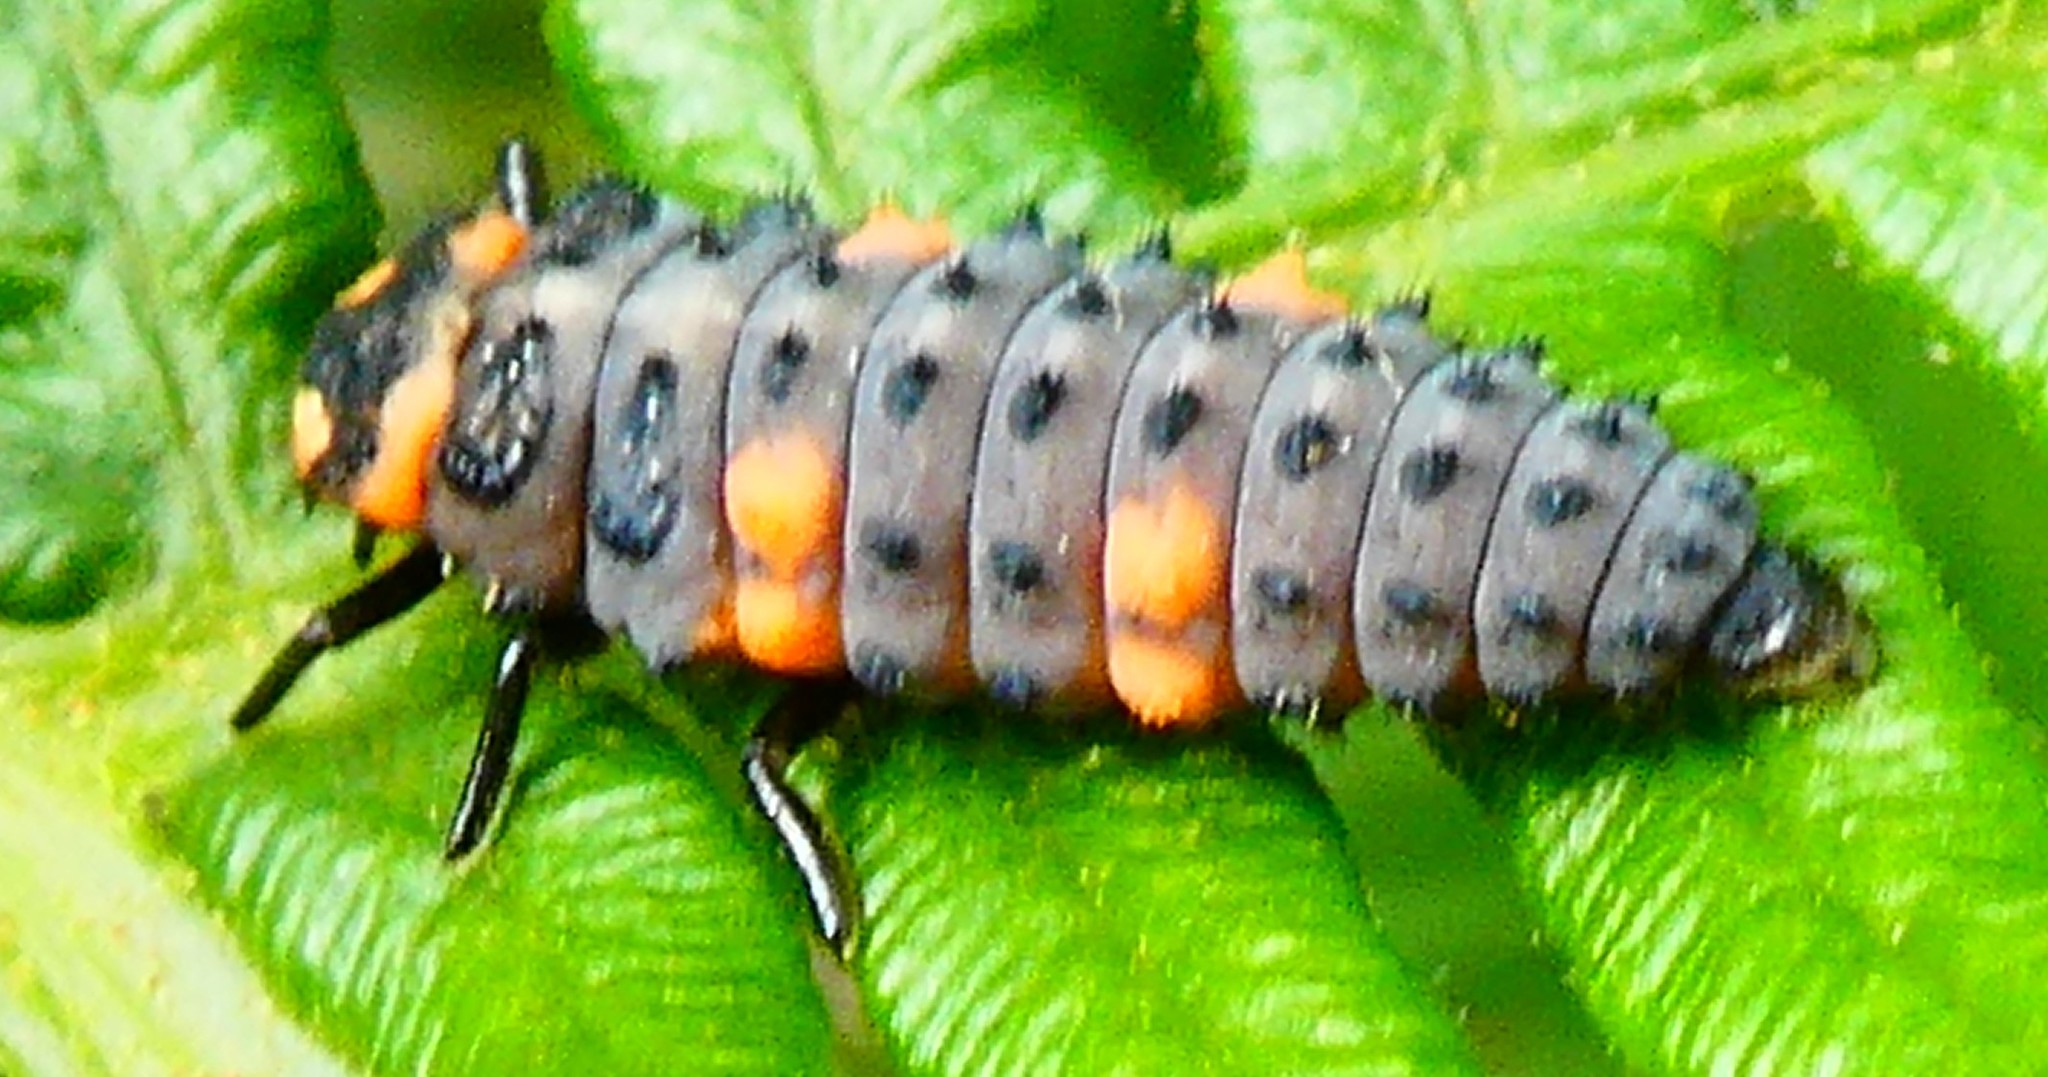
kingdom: Animalia
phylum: Arthropoda
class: Insecta
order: Coleoptera
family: Coccinellidae
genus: Coccinella
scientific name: Coccinella septempunctata
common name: Sevenspotted lady beetle
